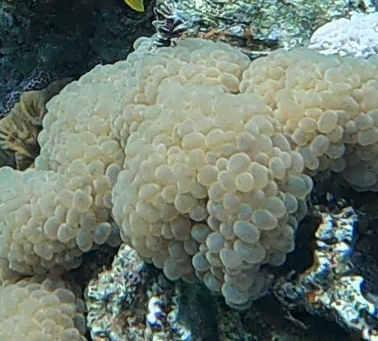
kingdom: Animalia
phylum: Cnidaria
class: Anthozoa
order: Scleractinia
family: Plerogyridae
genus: Plerogyra
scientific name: Plerogyra sinuosa
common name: Bubble coral
